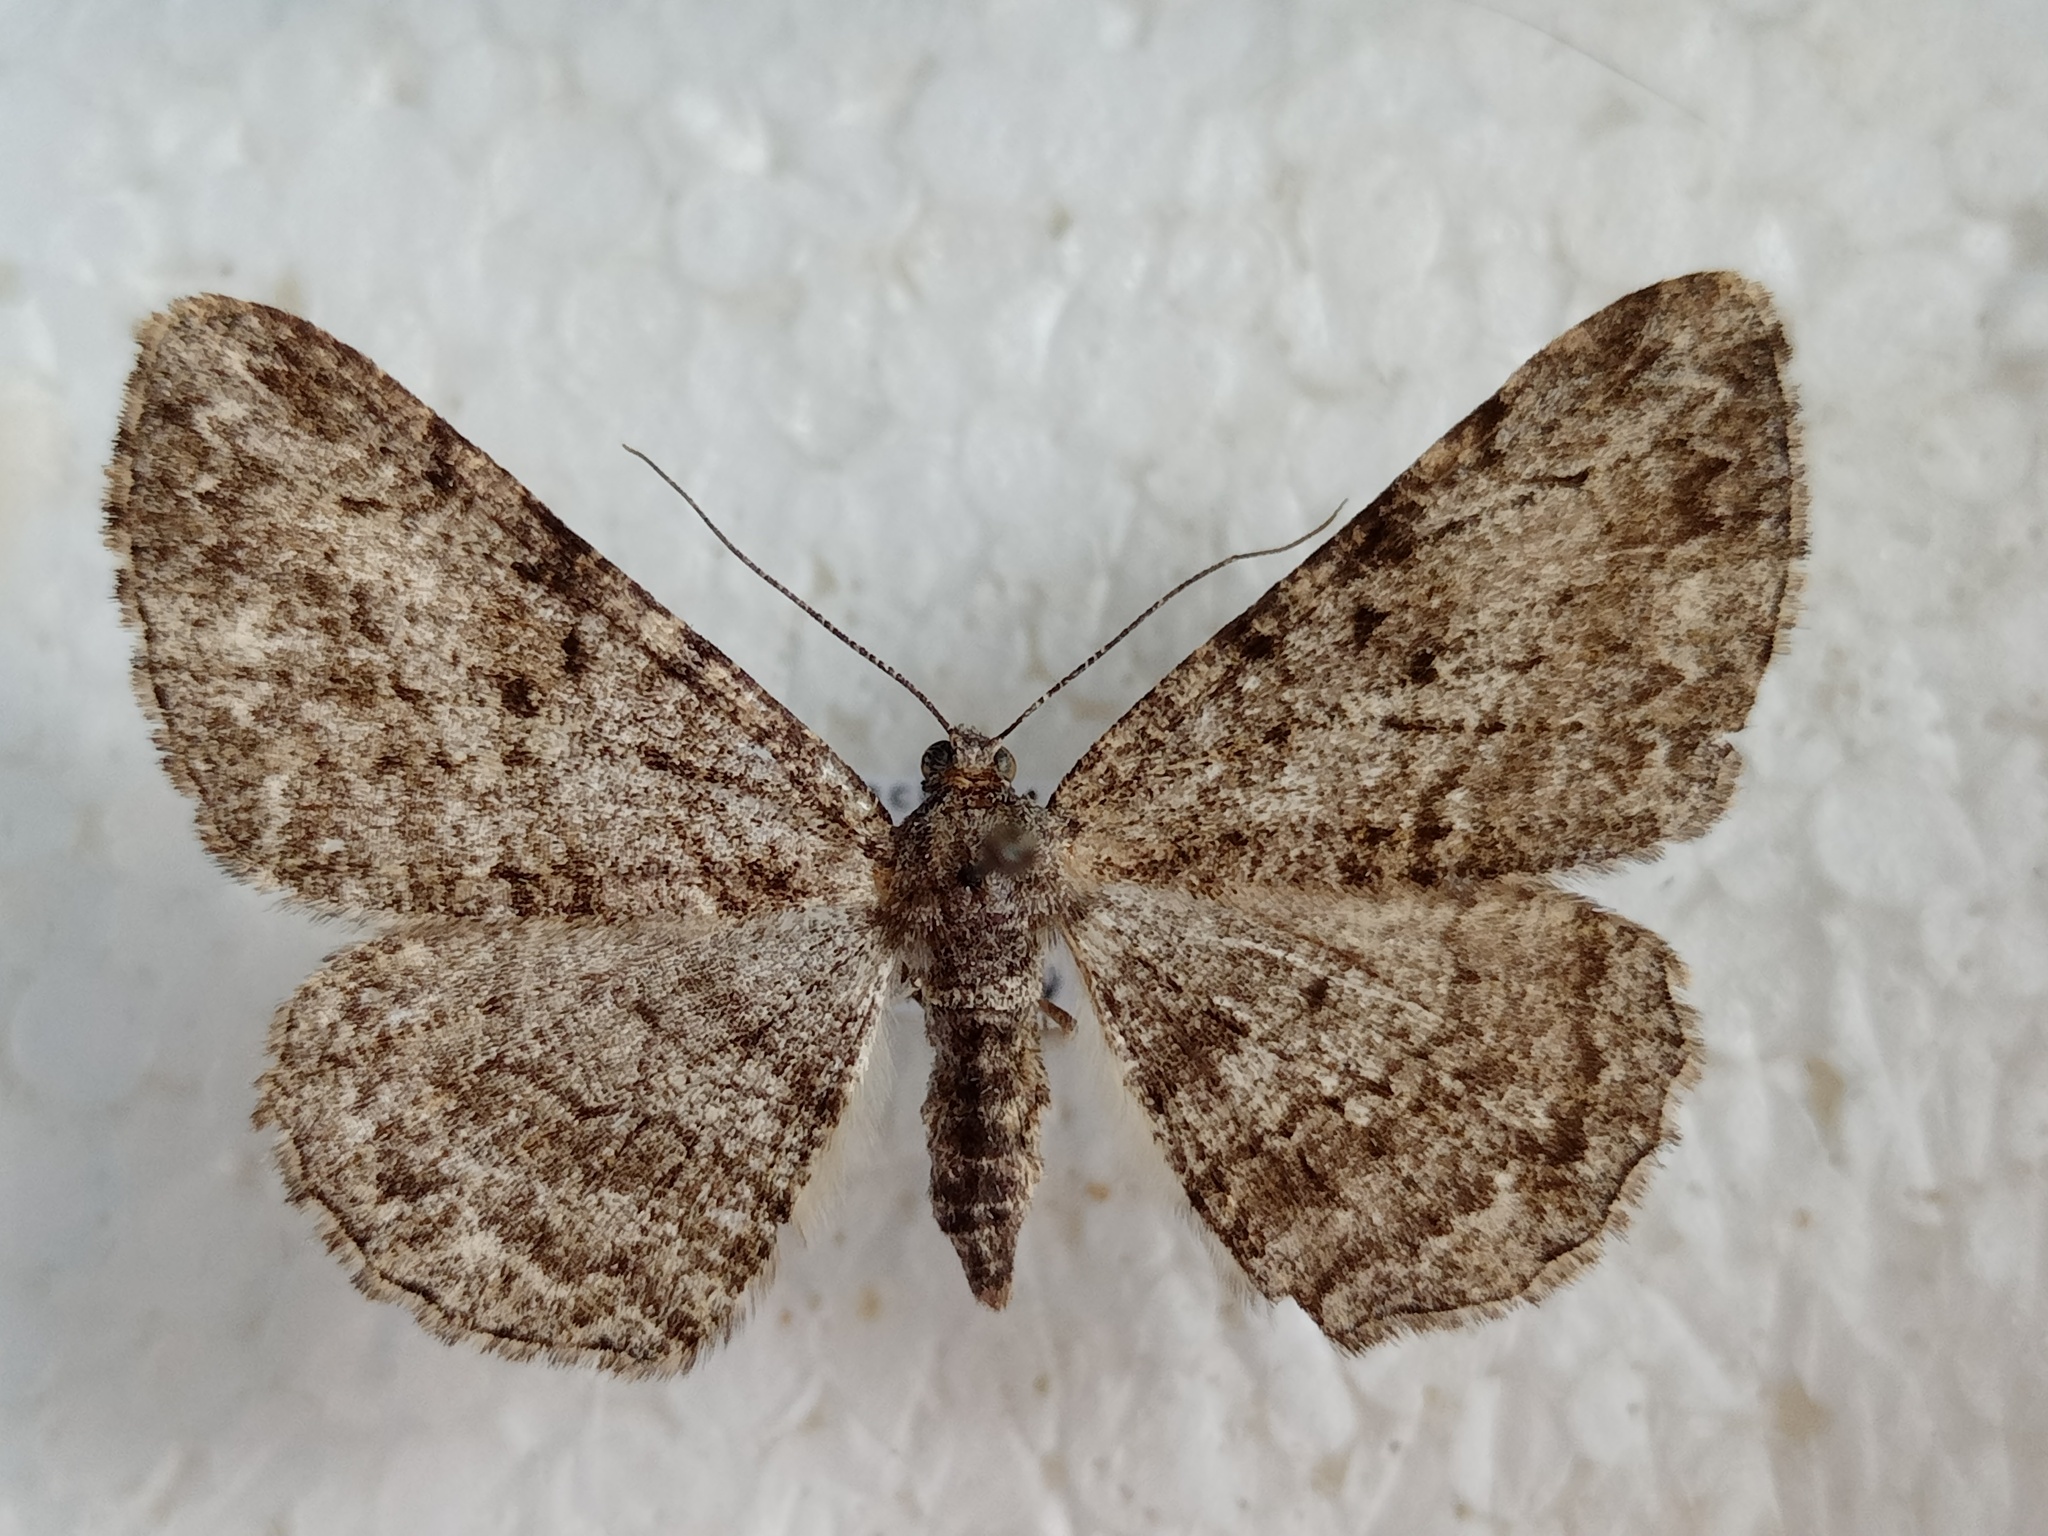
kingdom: Animalia
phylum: Arthropoda
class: Insecta
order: Lepidoptera
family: Geometridae
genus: Peribatodes
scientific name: Peribatodes rhomboidaria
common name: Willow beauty
